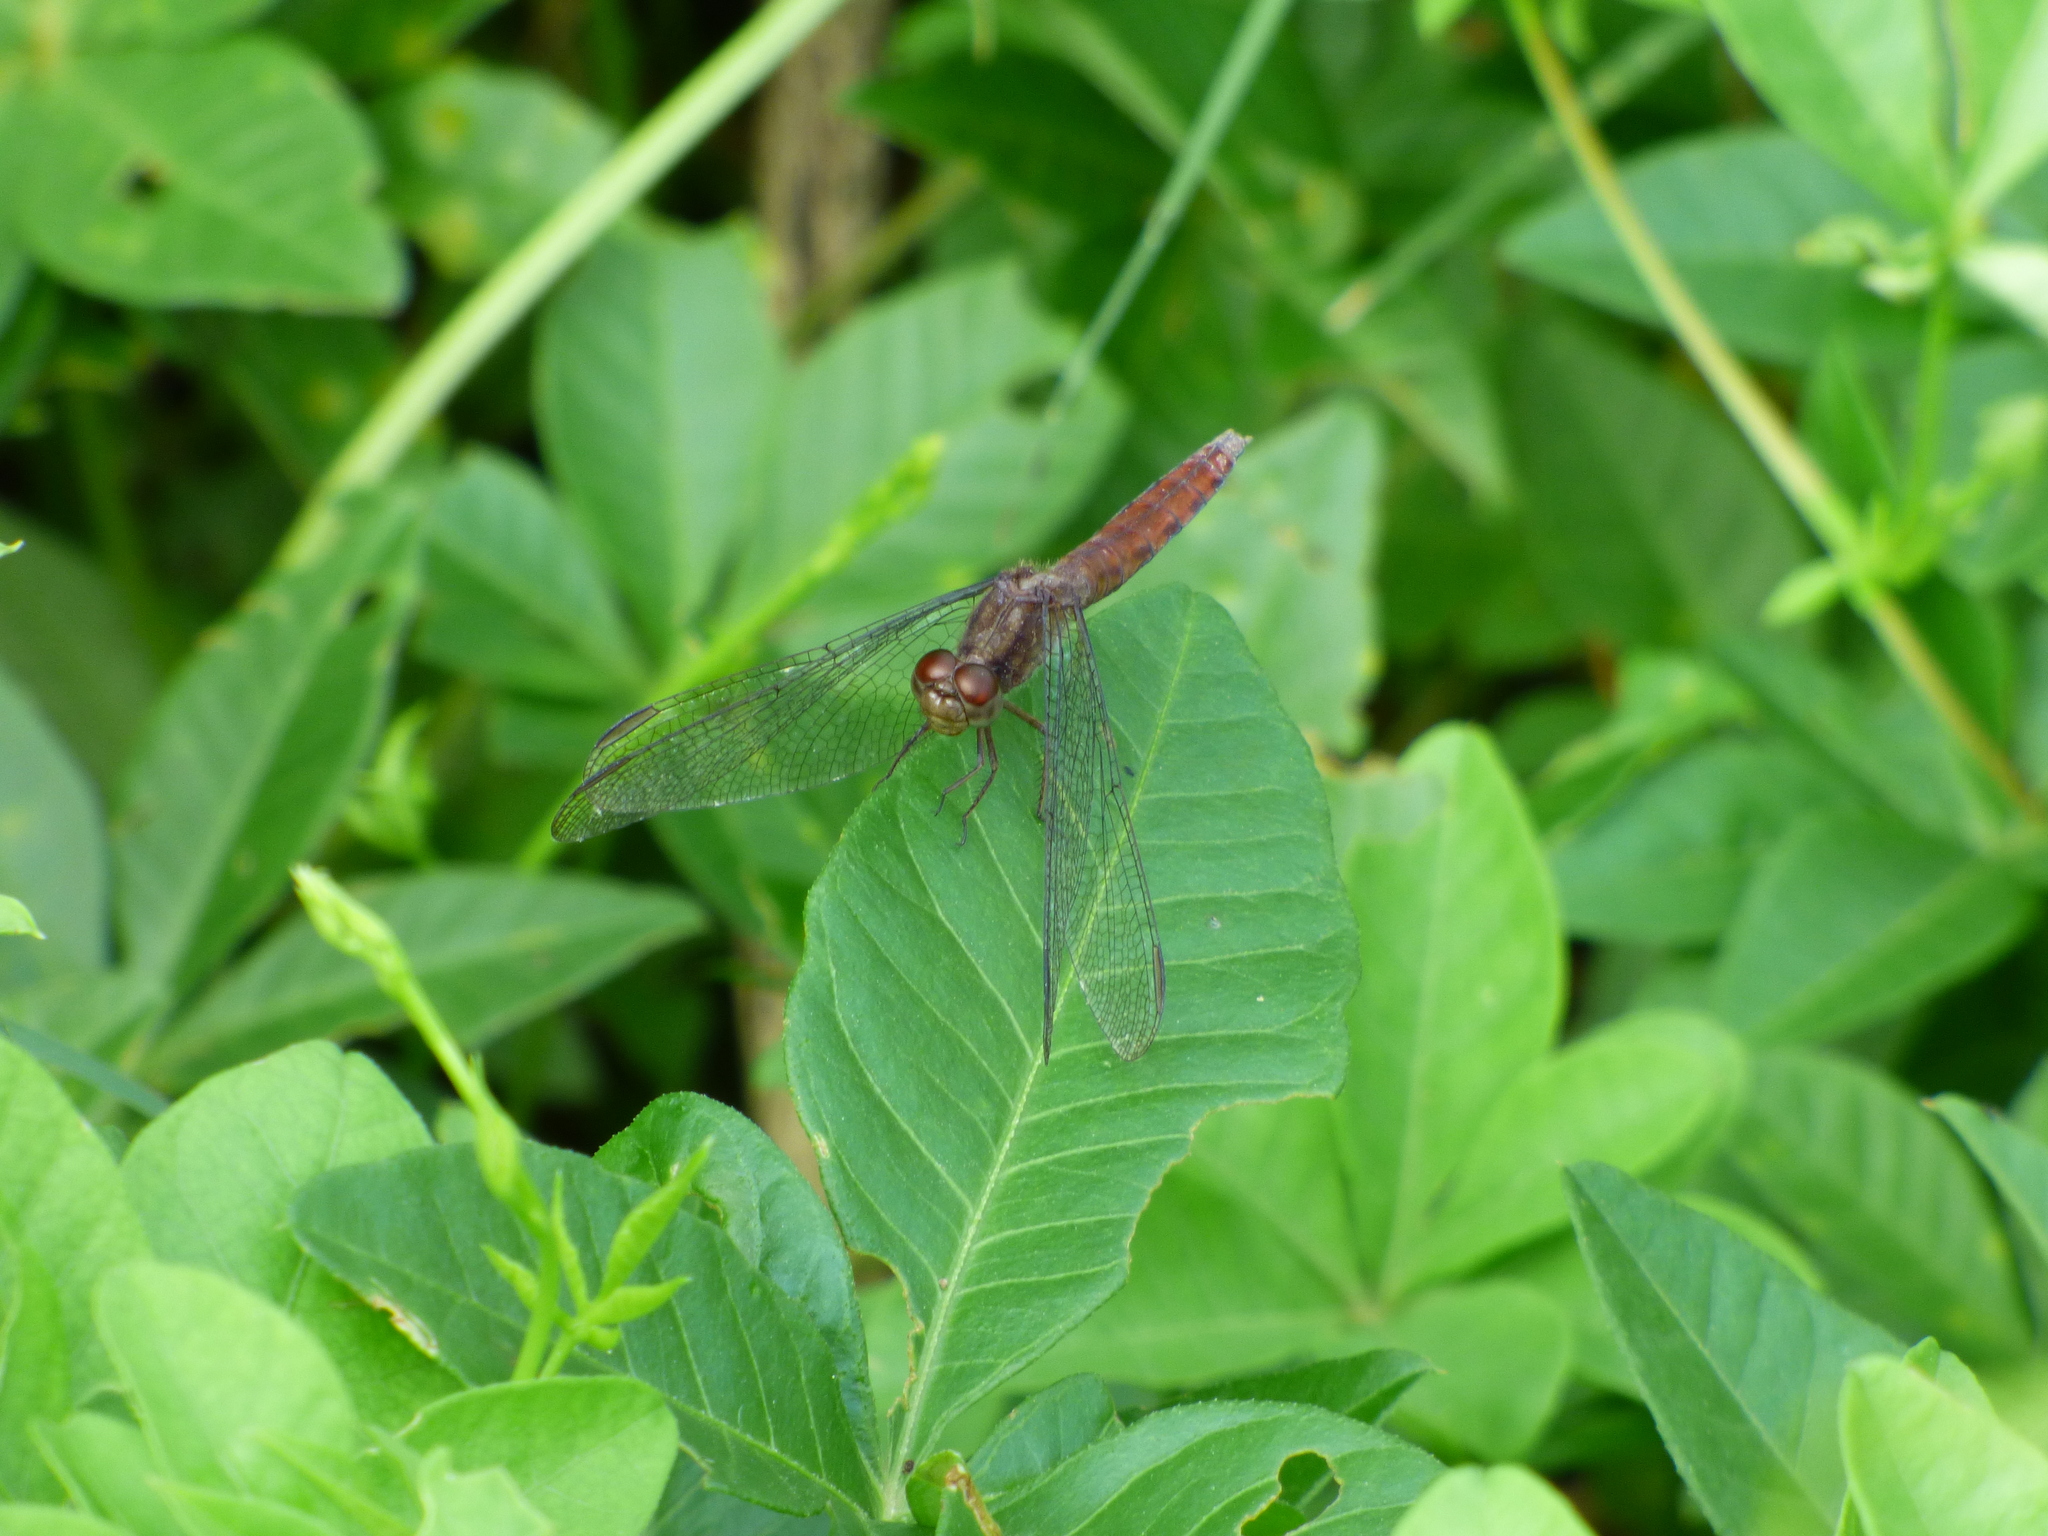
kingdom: Animalia
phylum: Arthropoda
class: Insecta
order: Odonata
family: Libellulidae
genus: Erythrodiplax
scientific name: Erythrodiplax media
